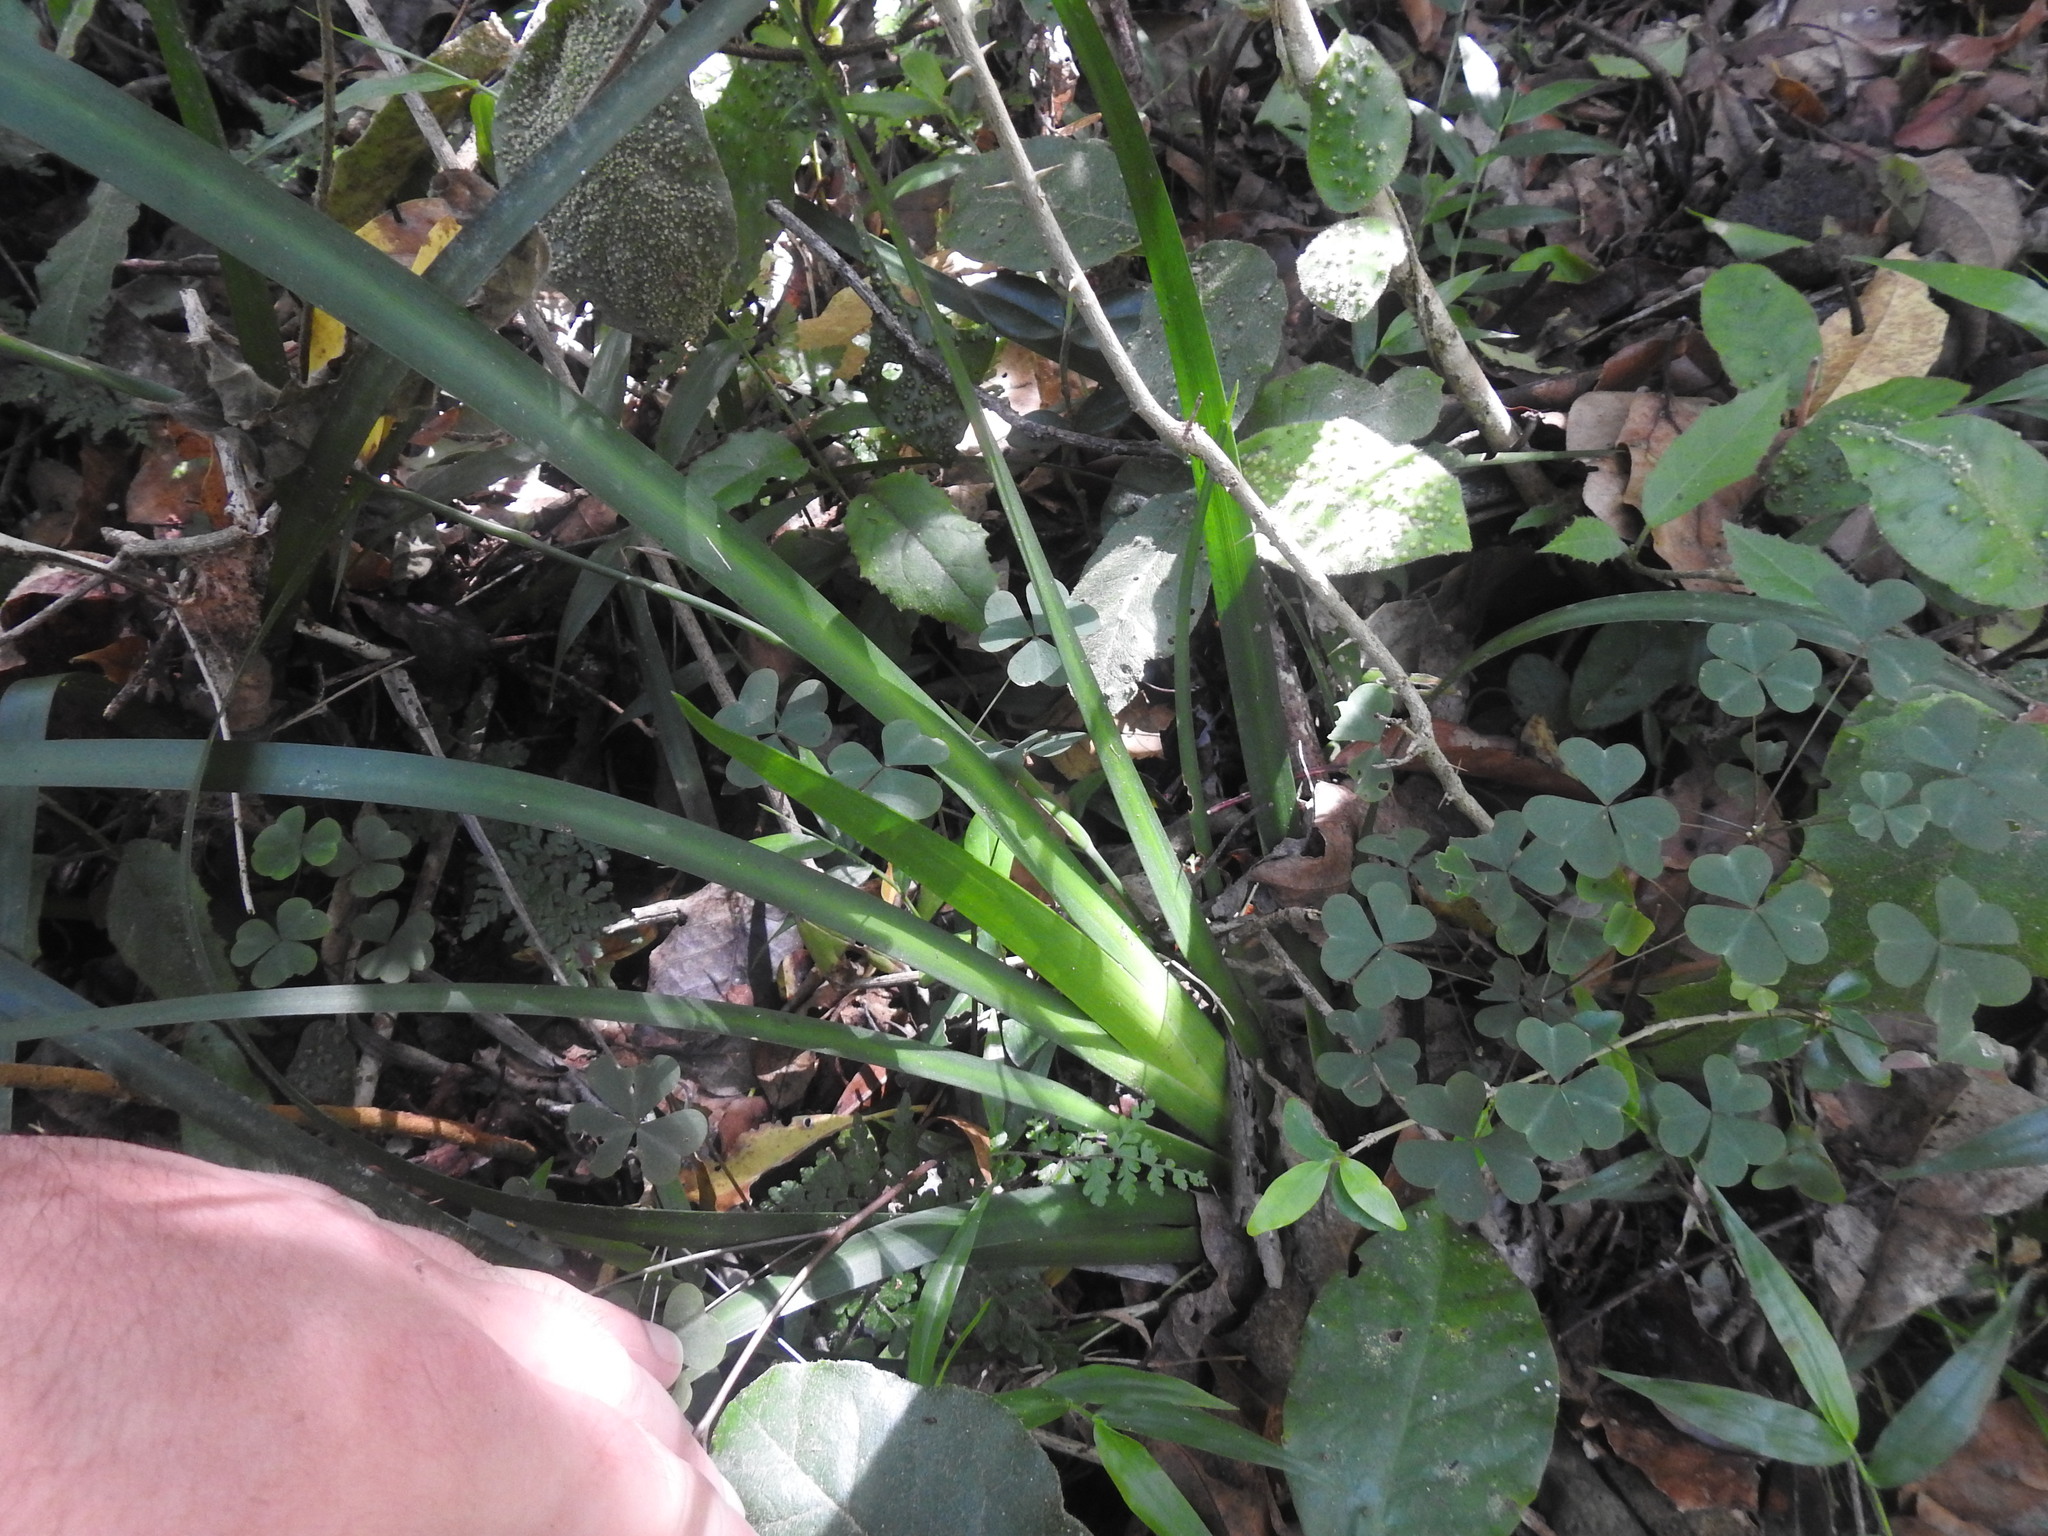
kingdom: Plantae
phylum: Tracheophyta
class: Liliopsida
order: Asparagales
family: Iridaceae
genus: Dietes
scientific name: Dietes iridioides
